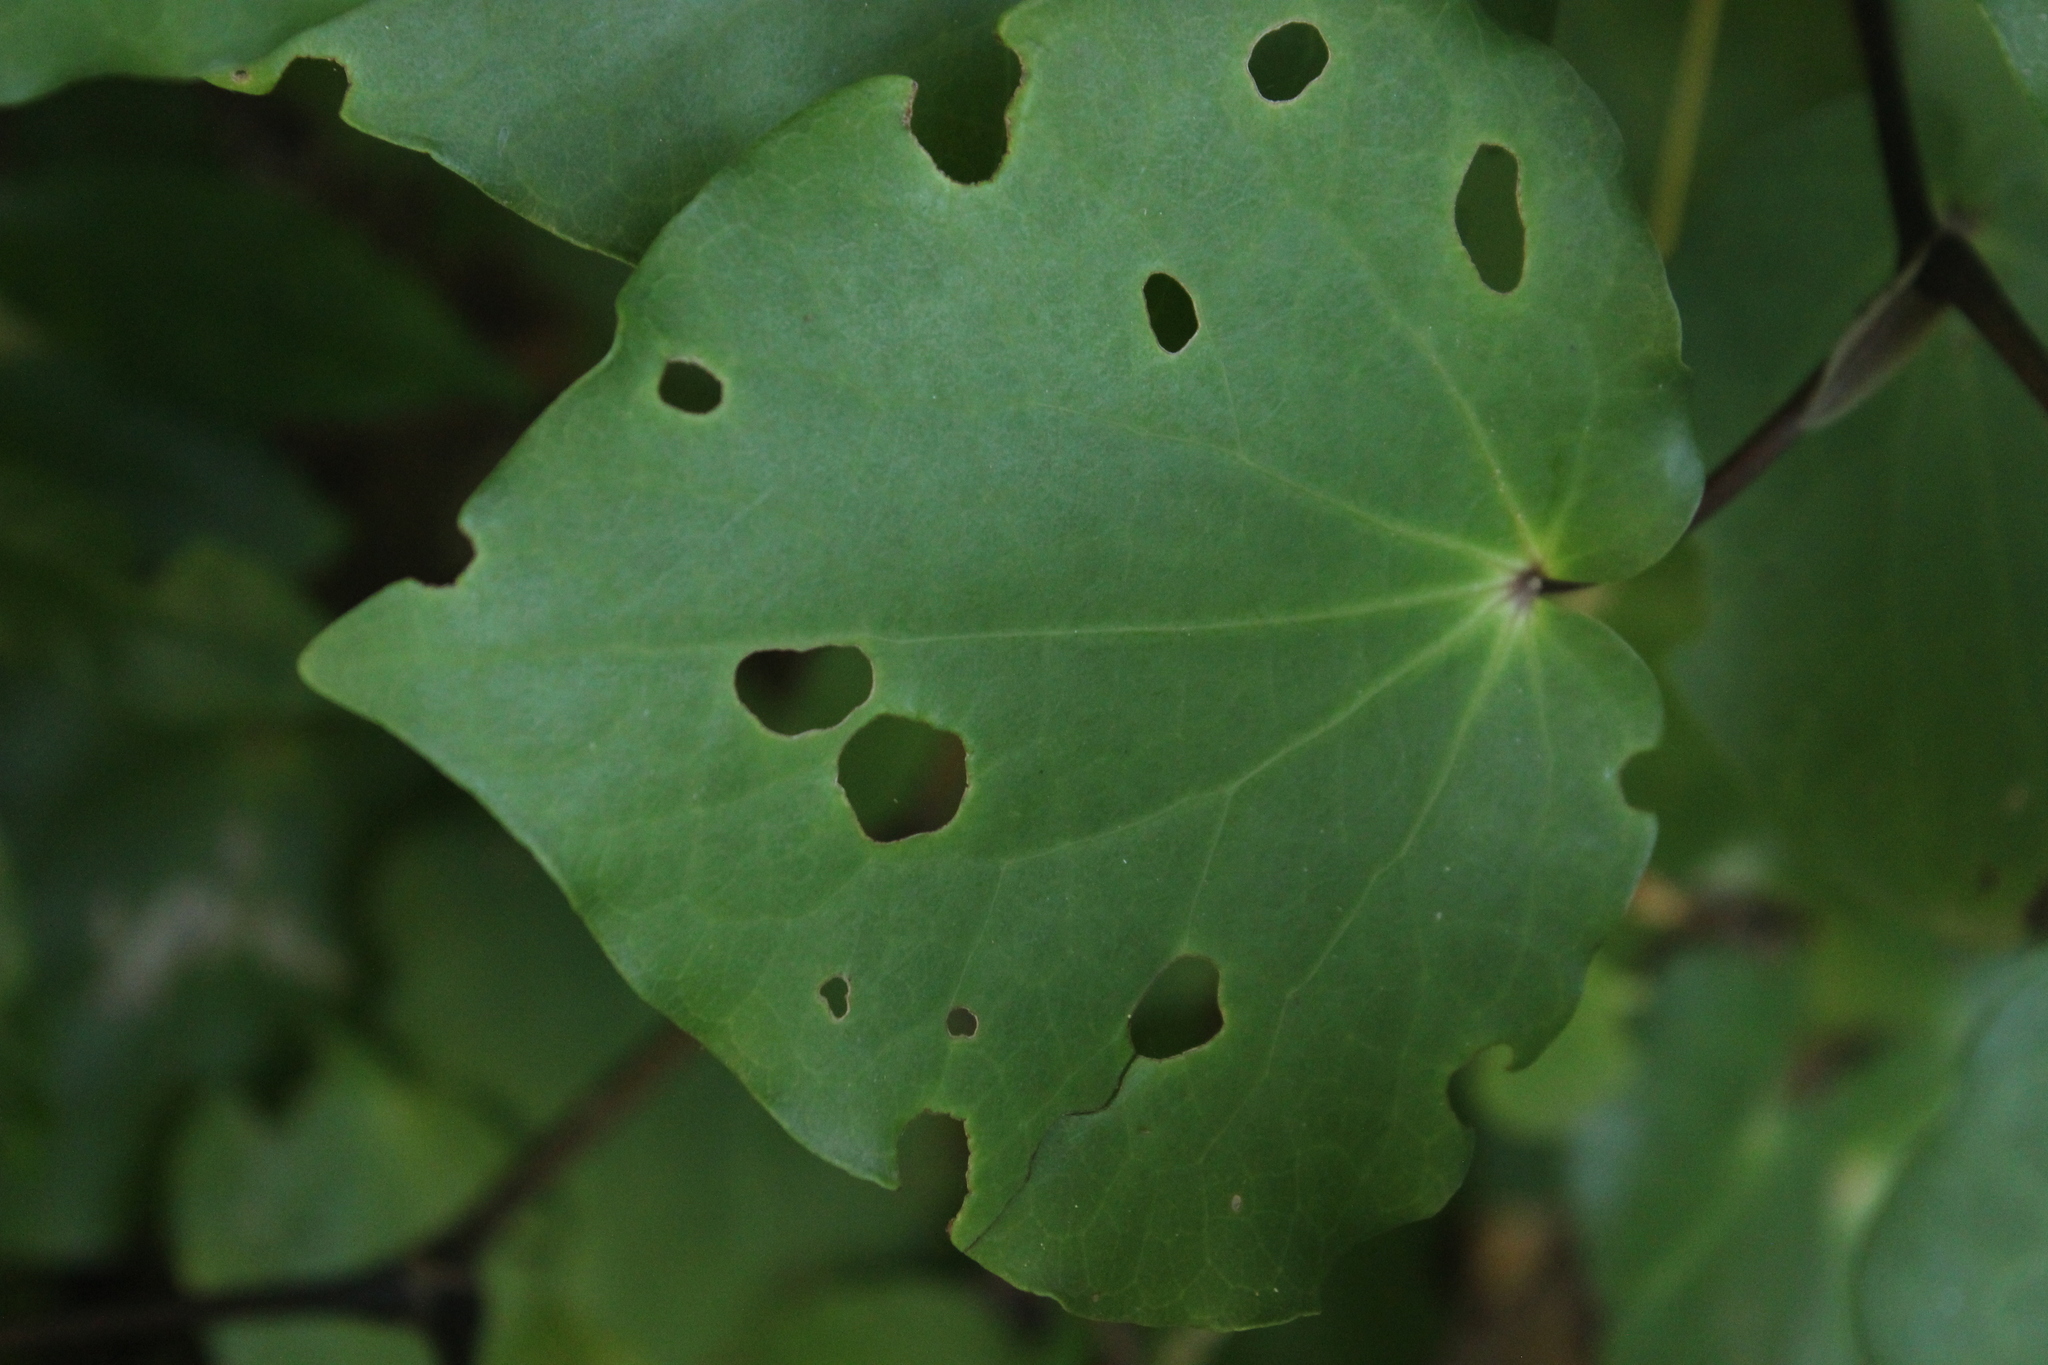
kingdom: Animalia
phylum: Arthropoda
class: Insecta
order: Lepidoptera
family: Geometridae
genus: Cleora
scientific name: Cleora scriptaria
